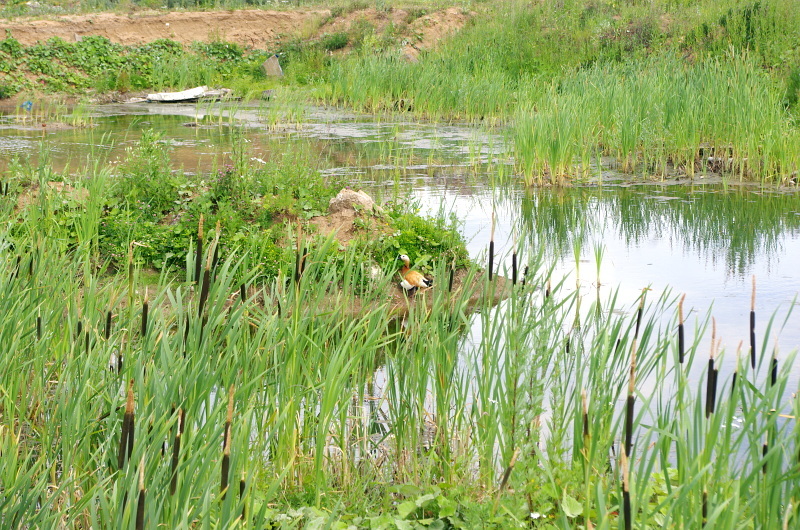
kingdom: Plantae
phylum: Tracheophyta
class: Liliopsida
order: Poales
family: Typhaceae
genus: Typha
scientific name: Typha latifolia
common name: Broadleaf cattail
